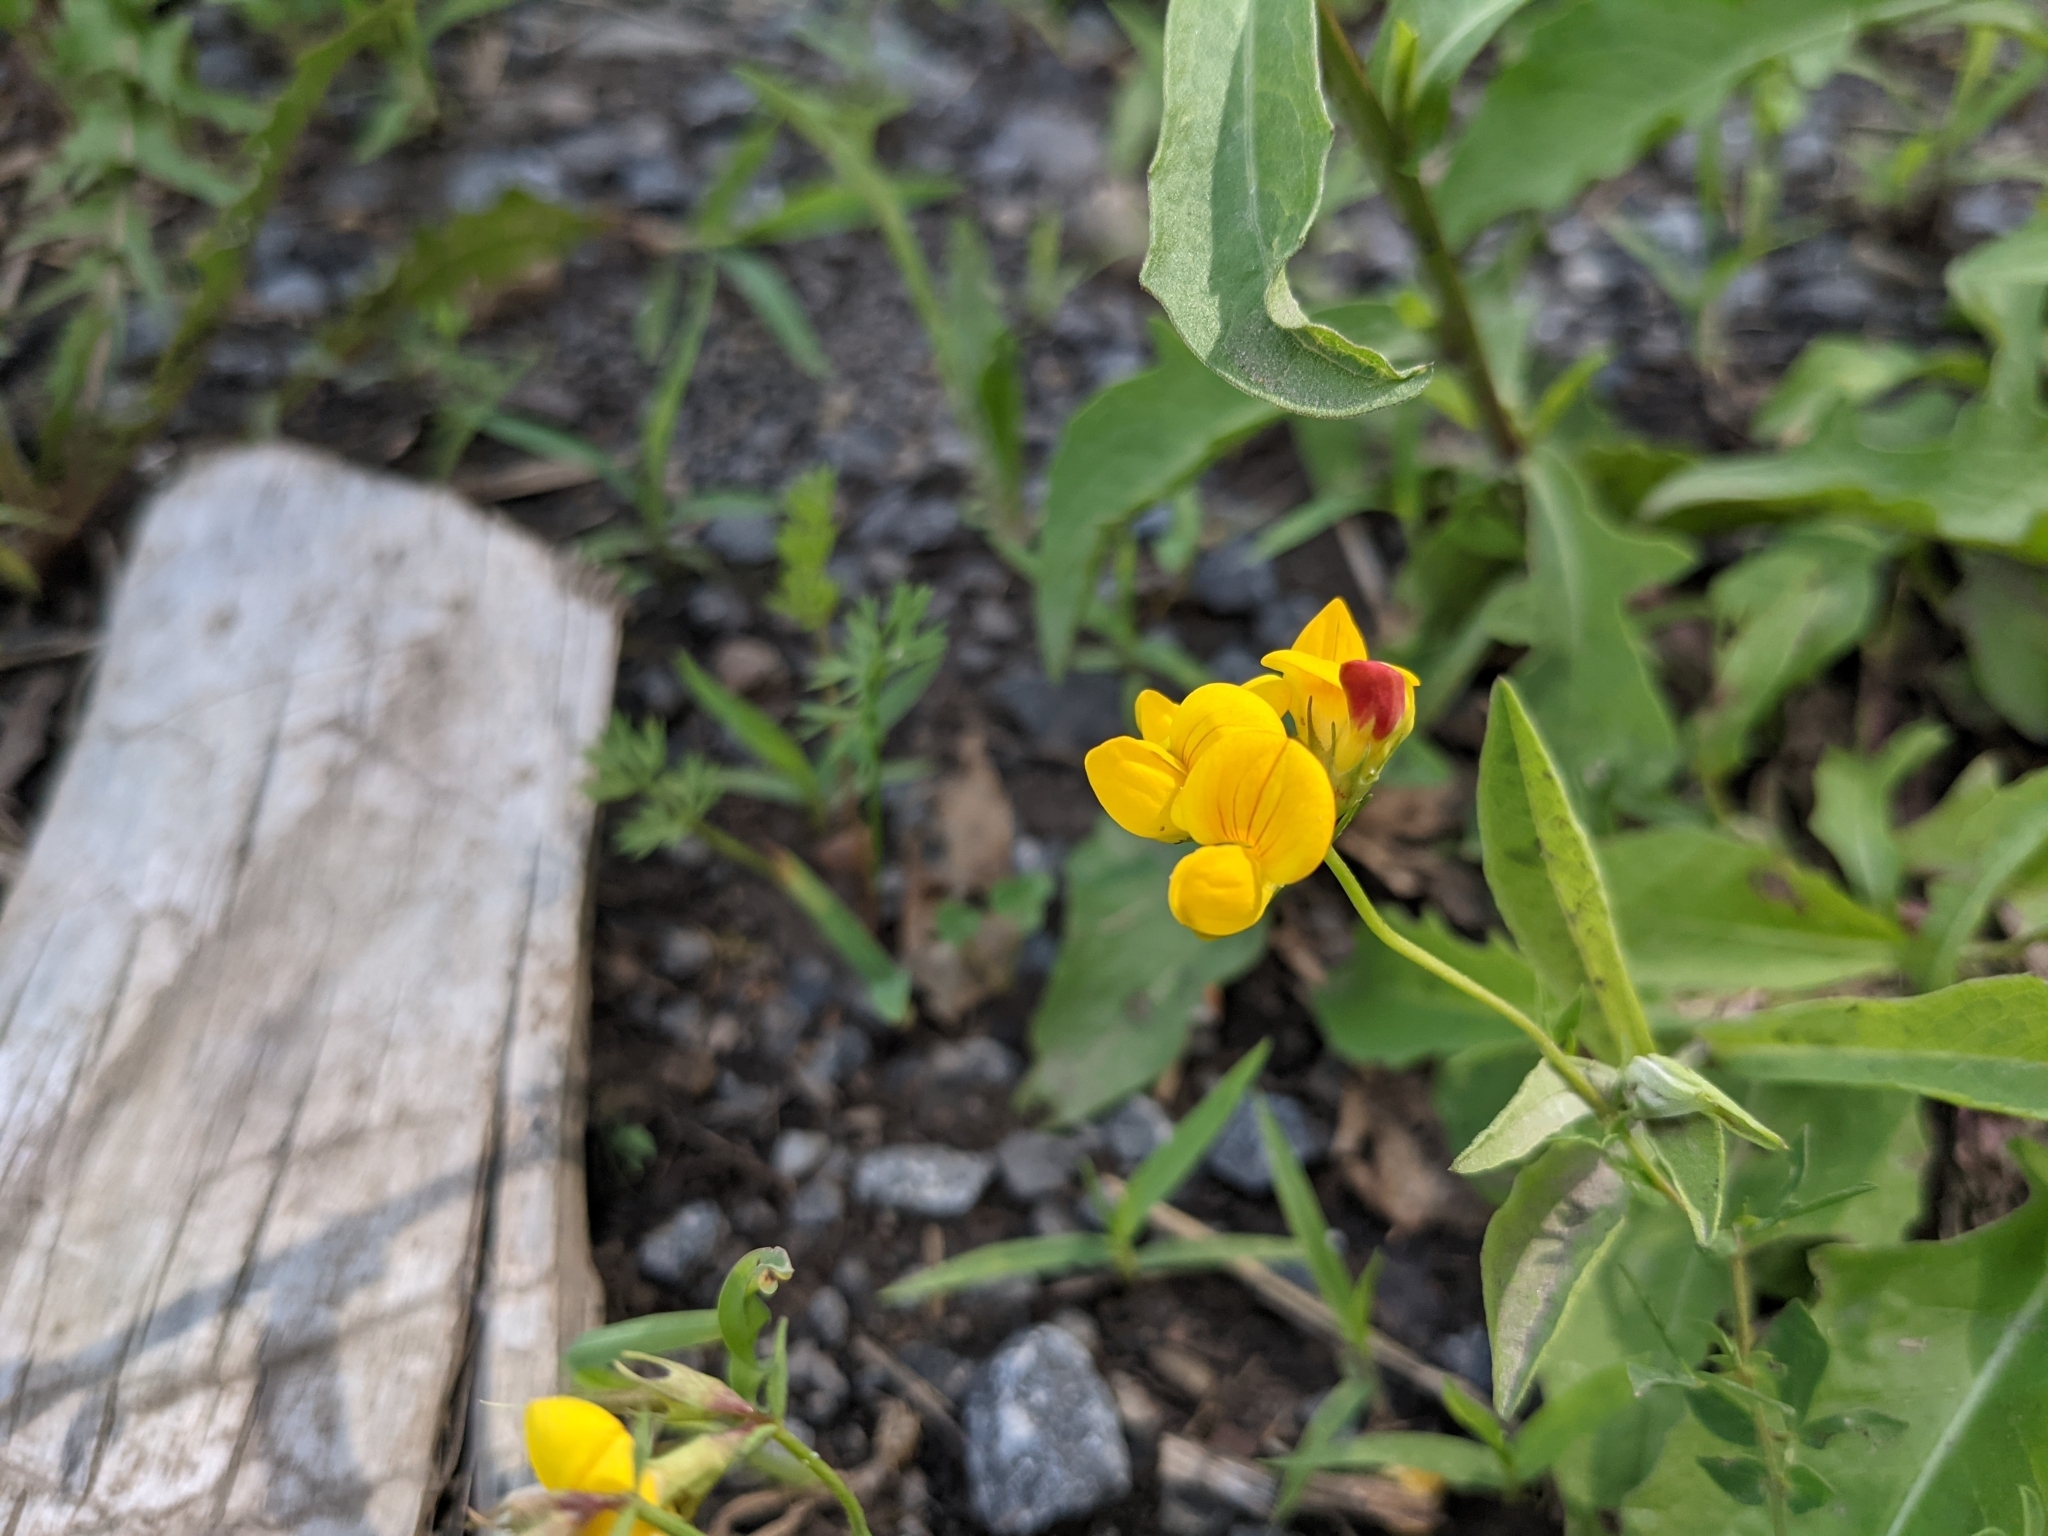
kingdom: Plantae
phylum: Tracheophyta
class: Magnoliopsida
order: Fabales
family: Fabaceae
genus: Lotus
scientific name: Lotus corniculatus
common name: Common bird's-foot-trefoil
